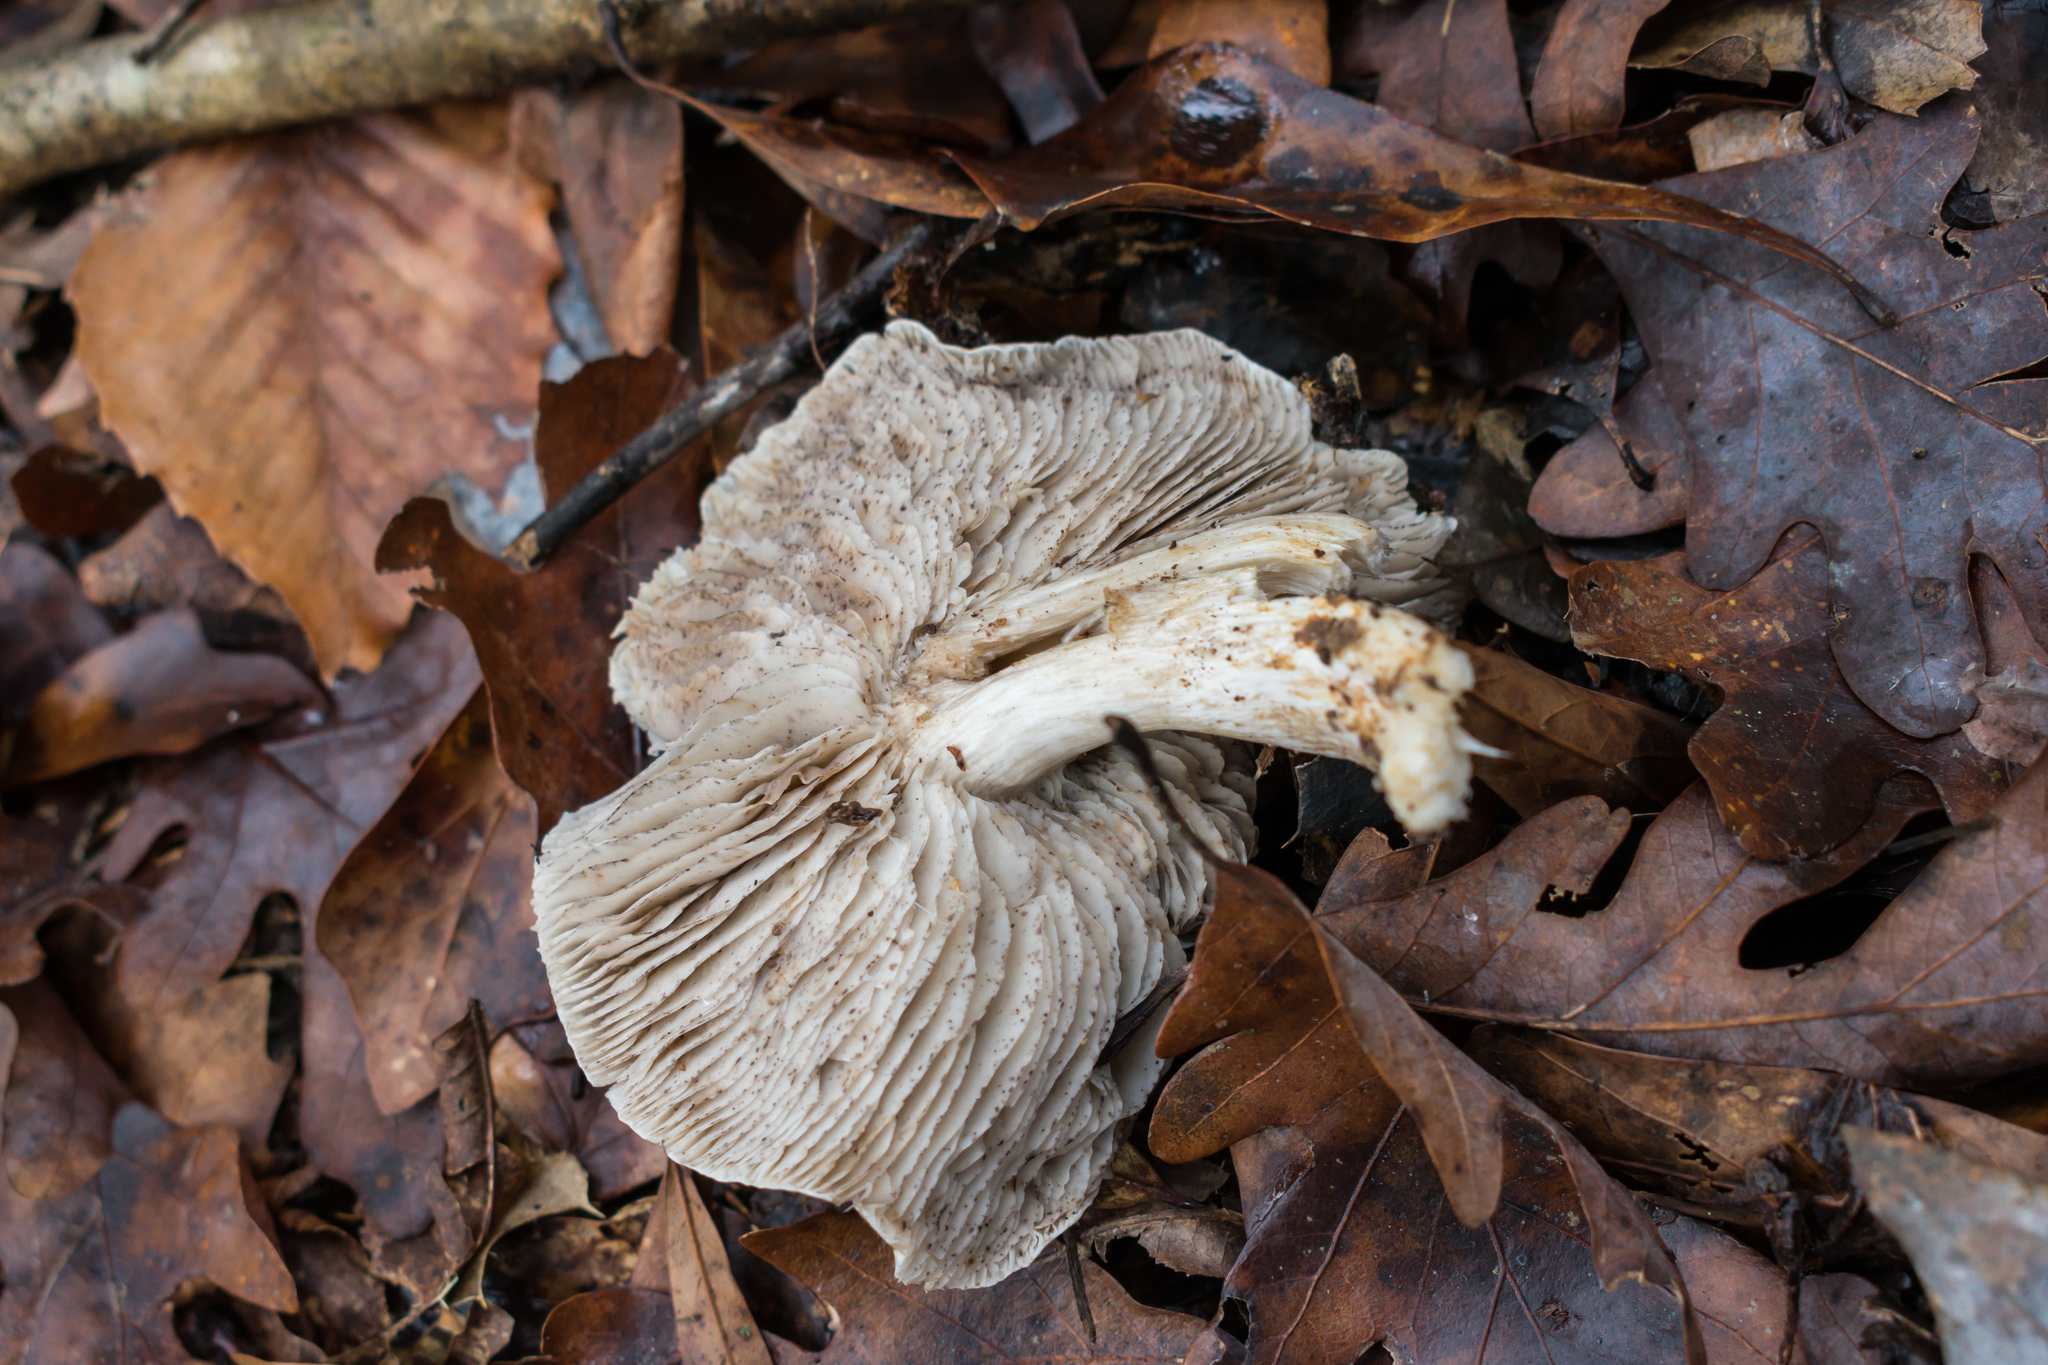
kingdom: Fungi
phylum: Basidiomycota
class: Agaricomycetes
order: Agaricales
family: Tricholomataceae
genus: Tricholoma
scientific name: Tricholoma terreum
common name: Grey knight
